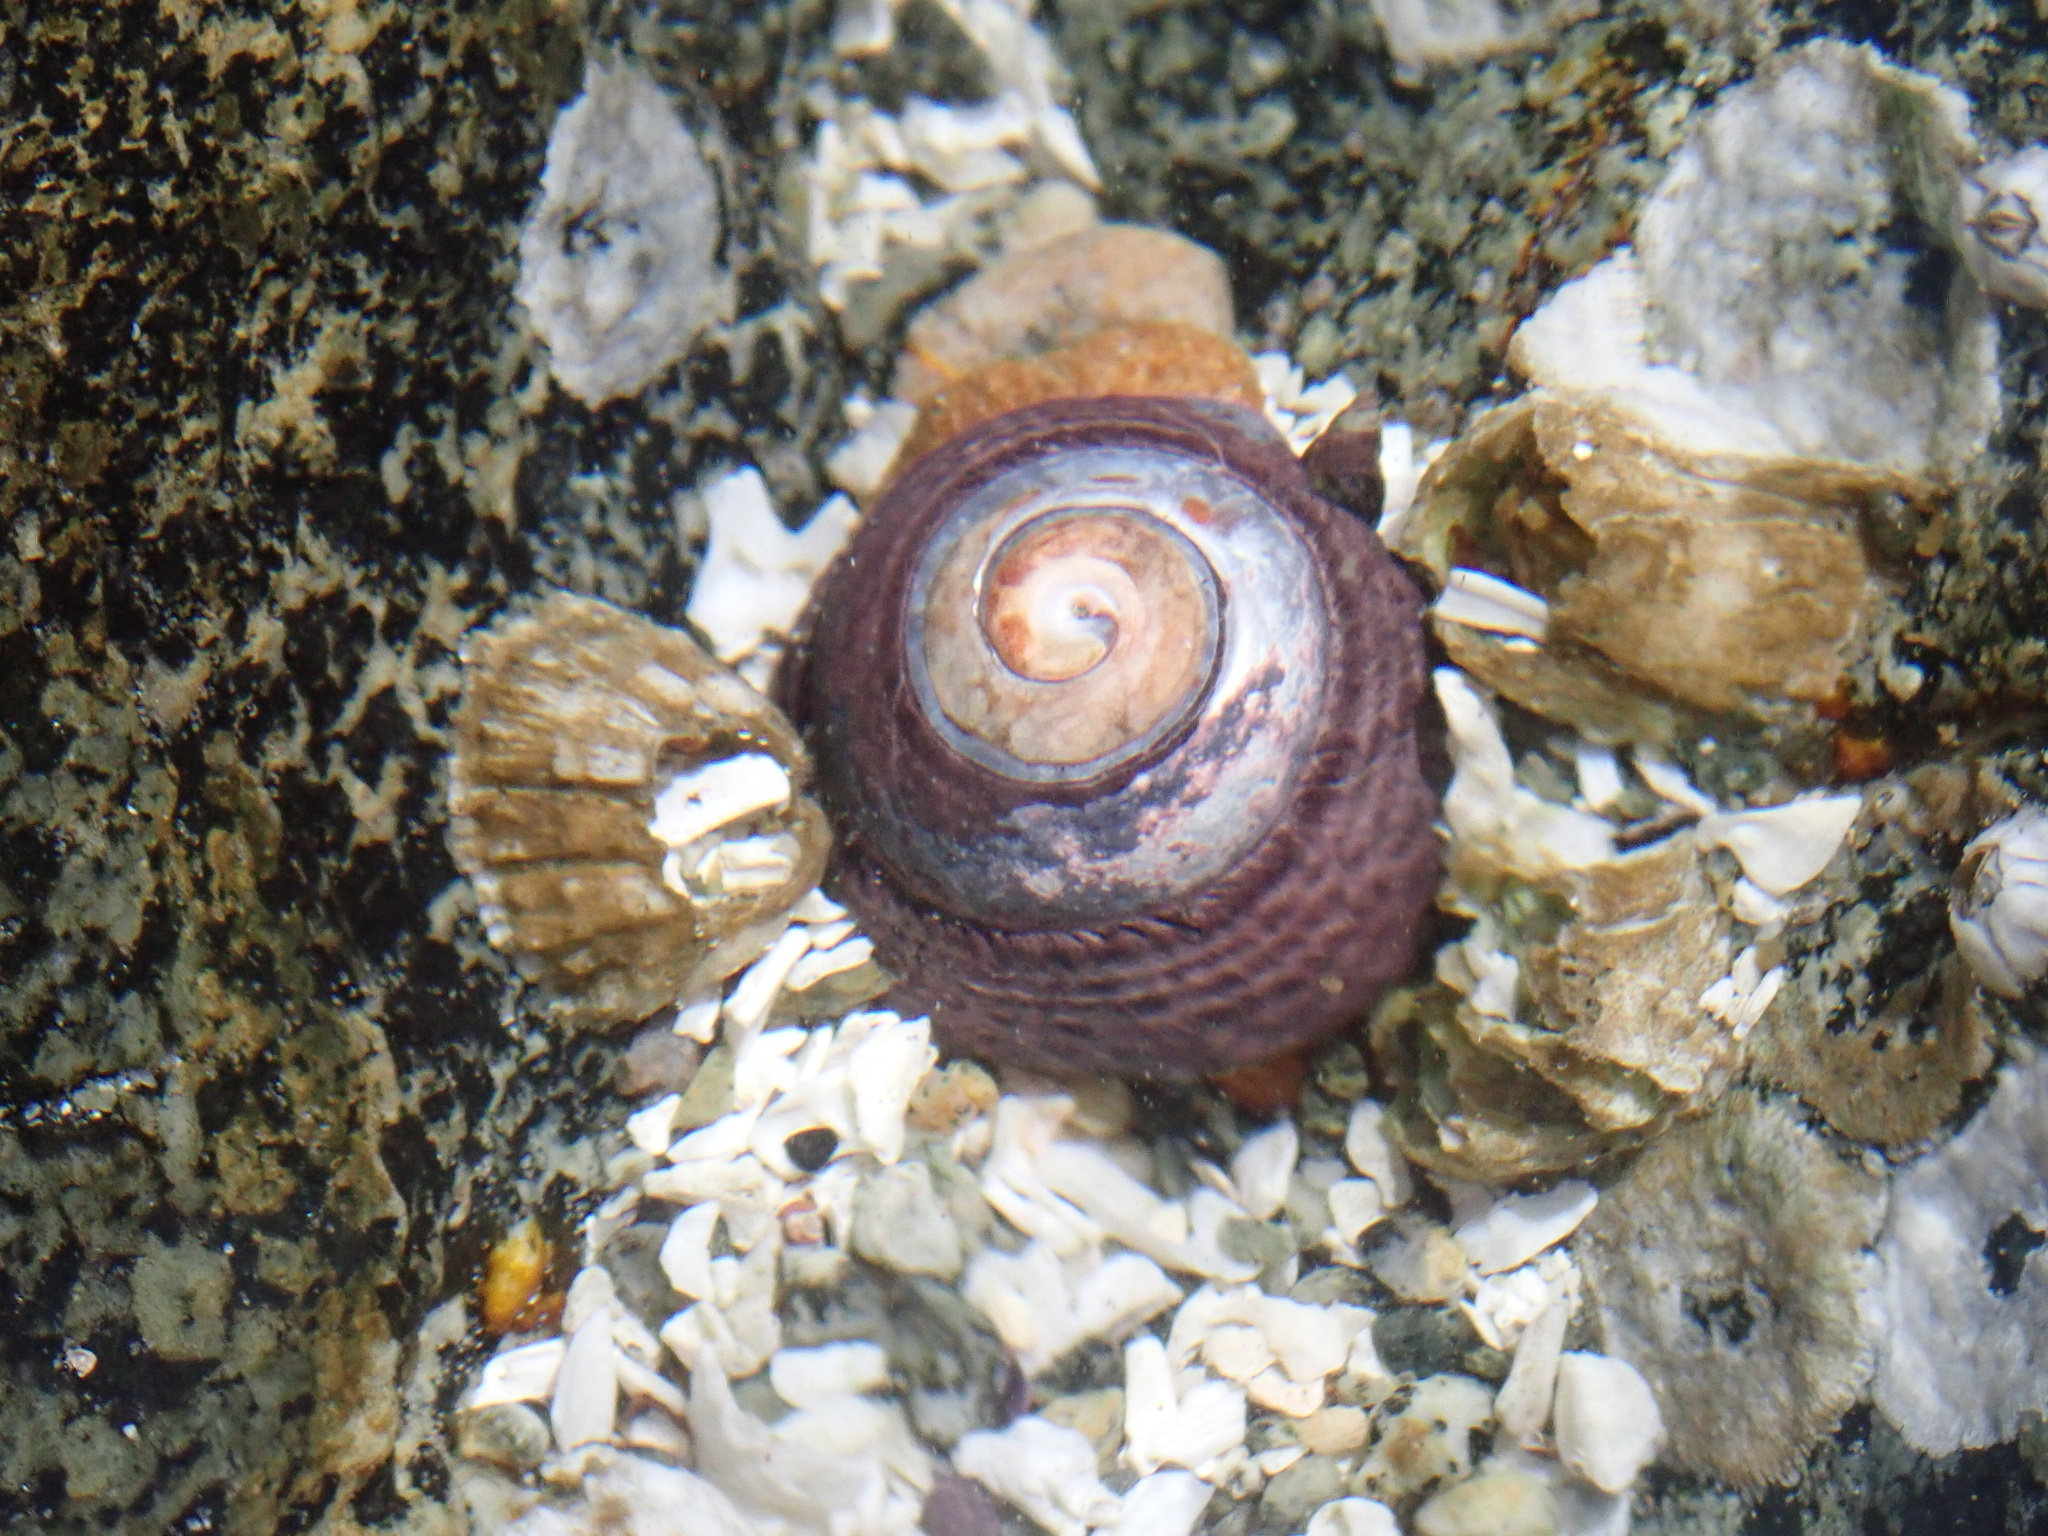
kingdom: Animalia
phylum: Mollusca
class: Gastropoda
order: Trochida
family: Tegulidae
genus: Tegula
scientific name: Tegula funebralis
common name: Black tegula
